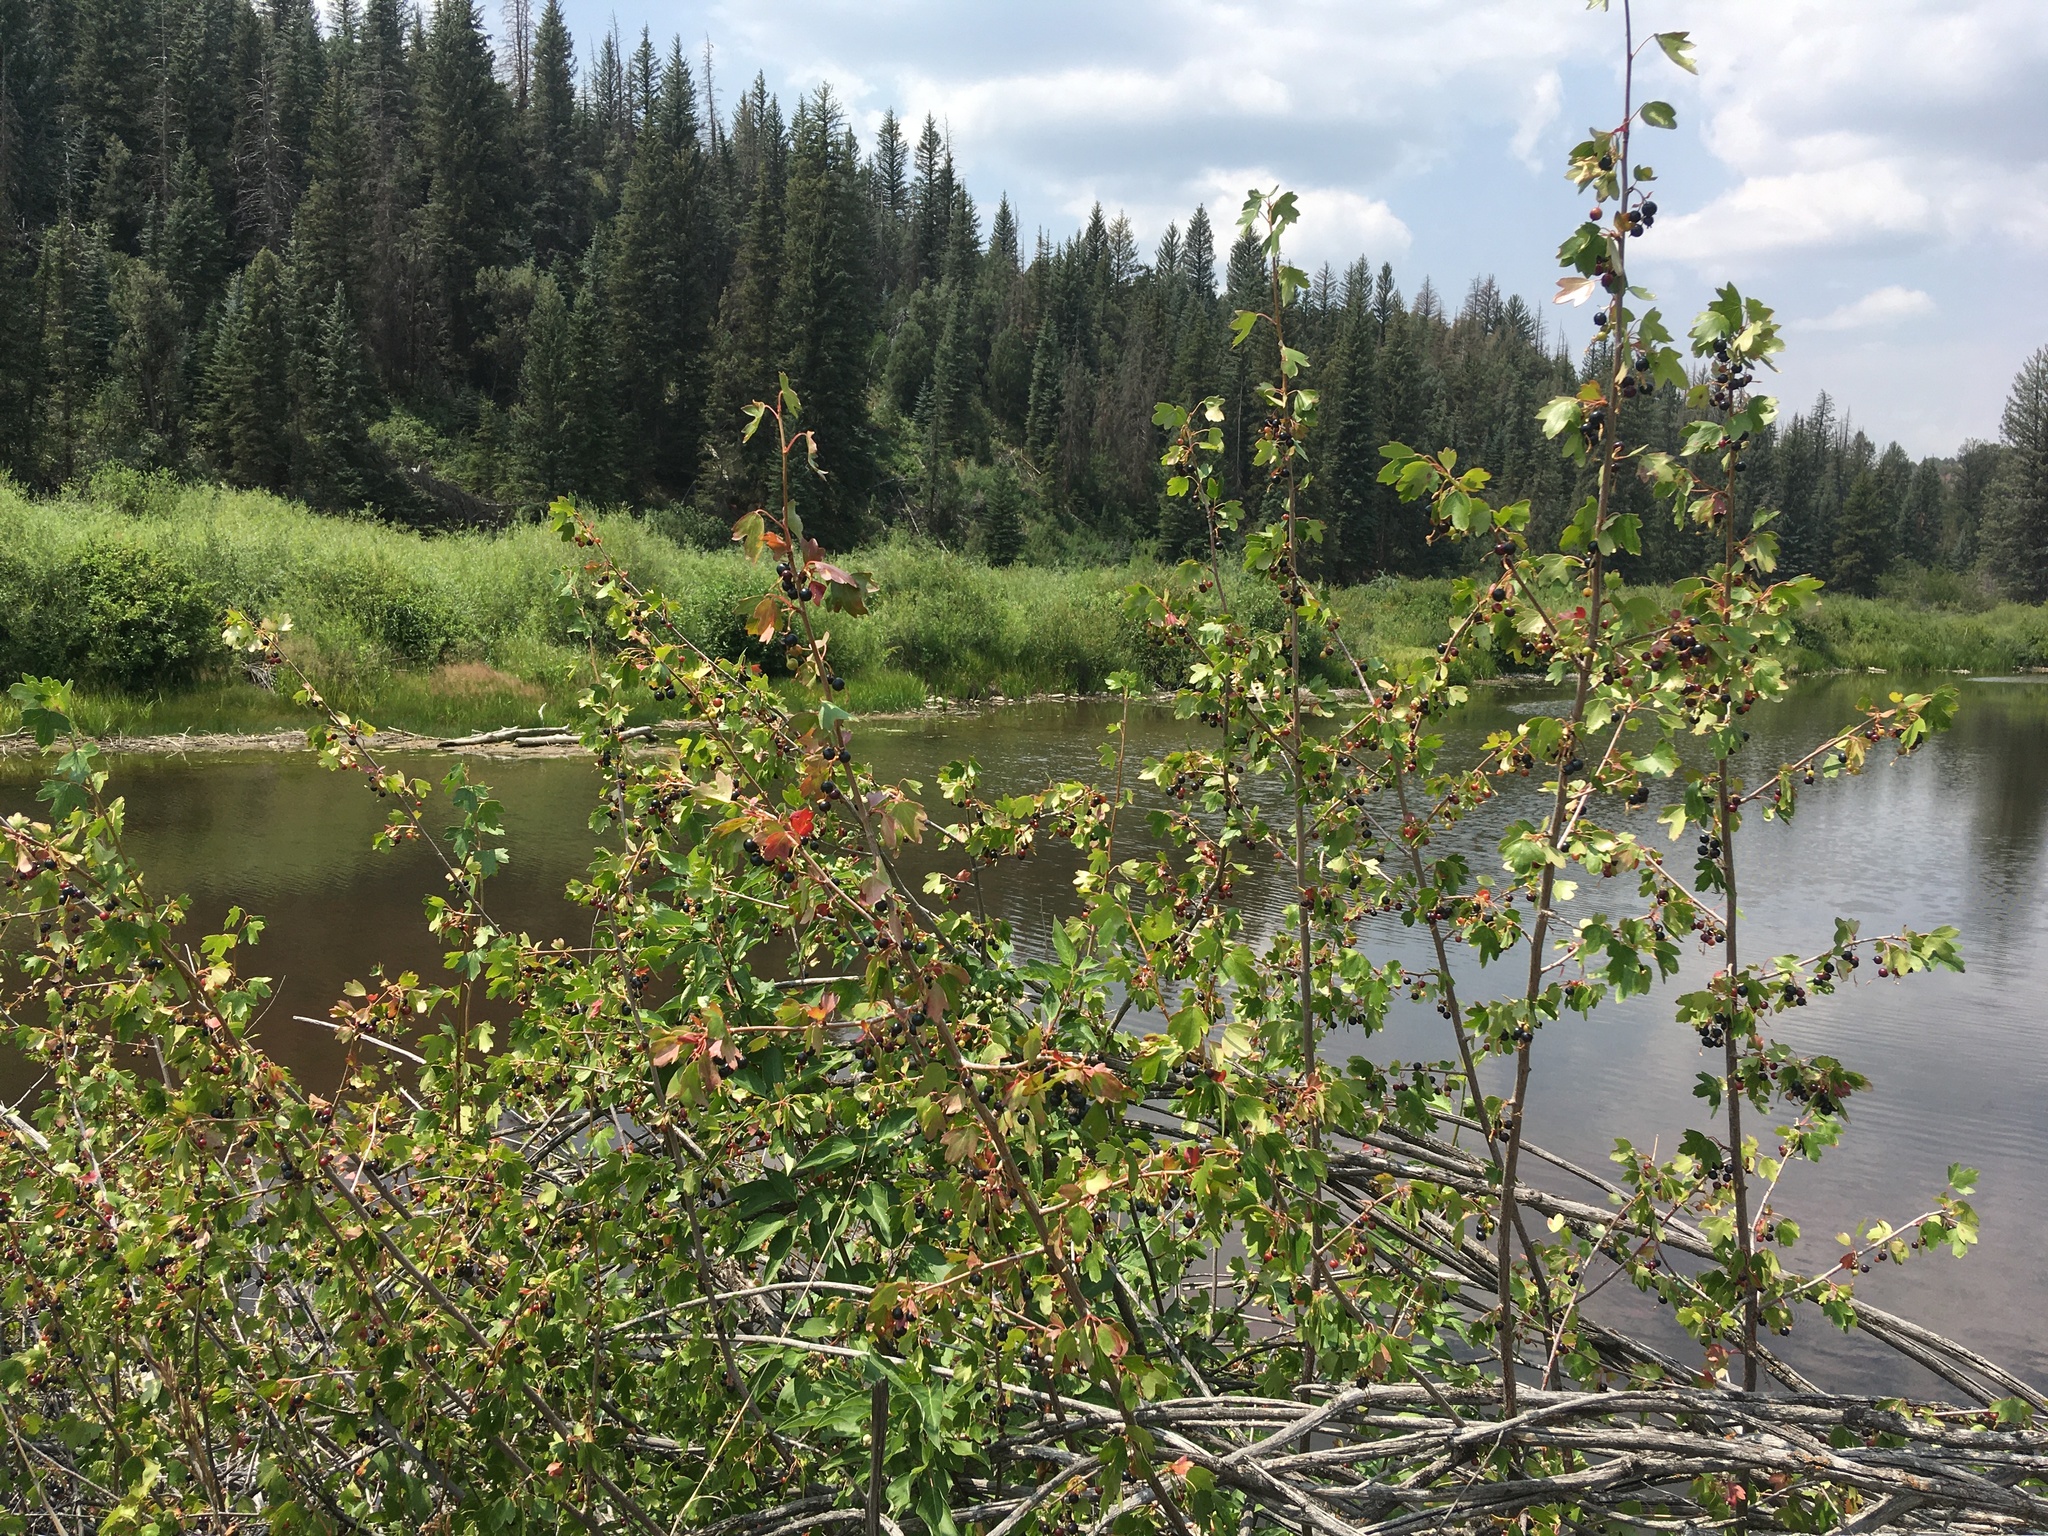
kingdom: Plantae
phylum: Tracheophyta
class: Magnoliopsida
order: Saxifragales
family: Grossulariaceae
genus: Ribes
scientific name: Ribes aureum
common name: Golden currant
